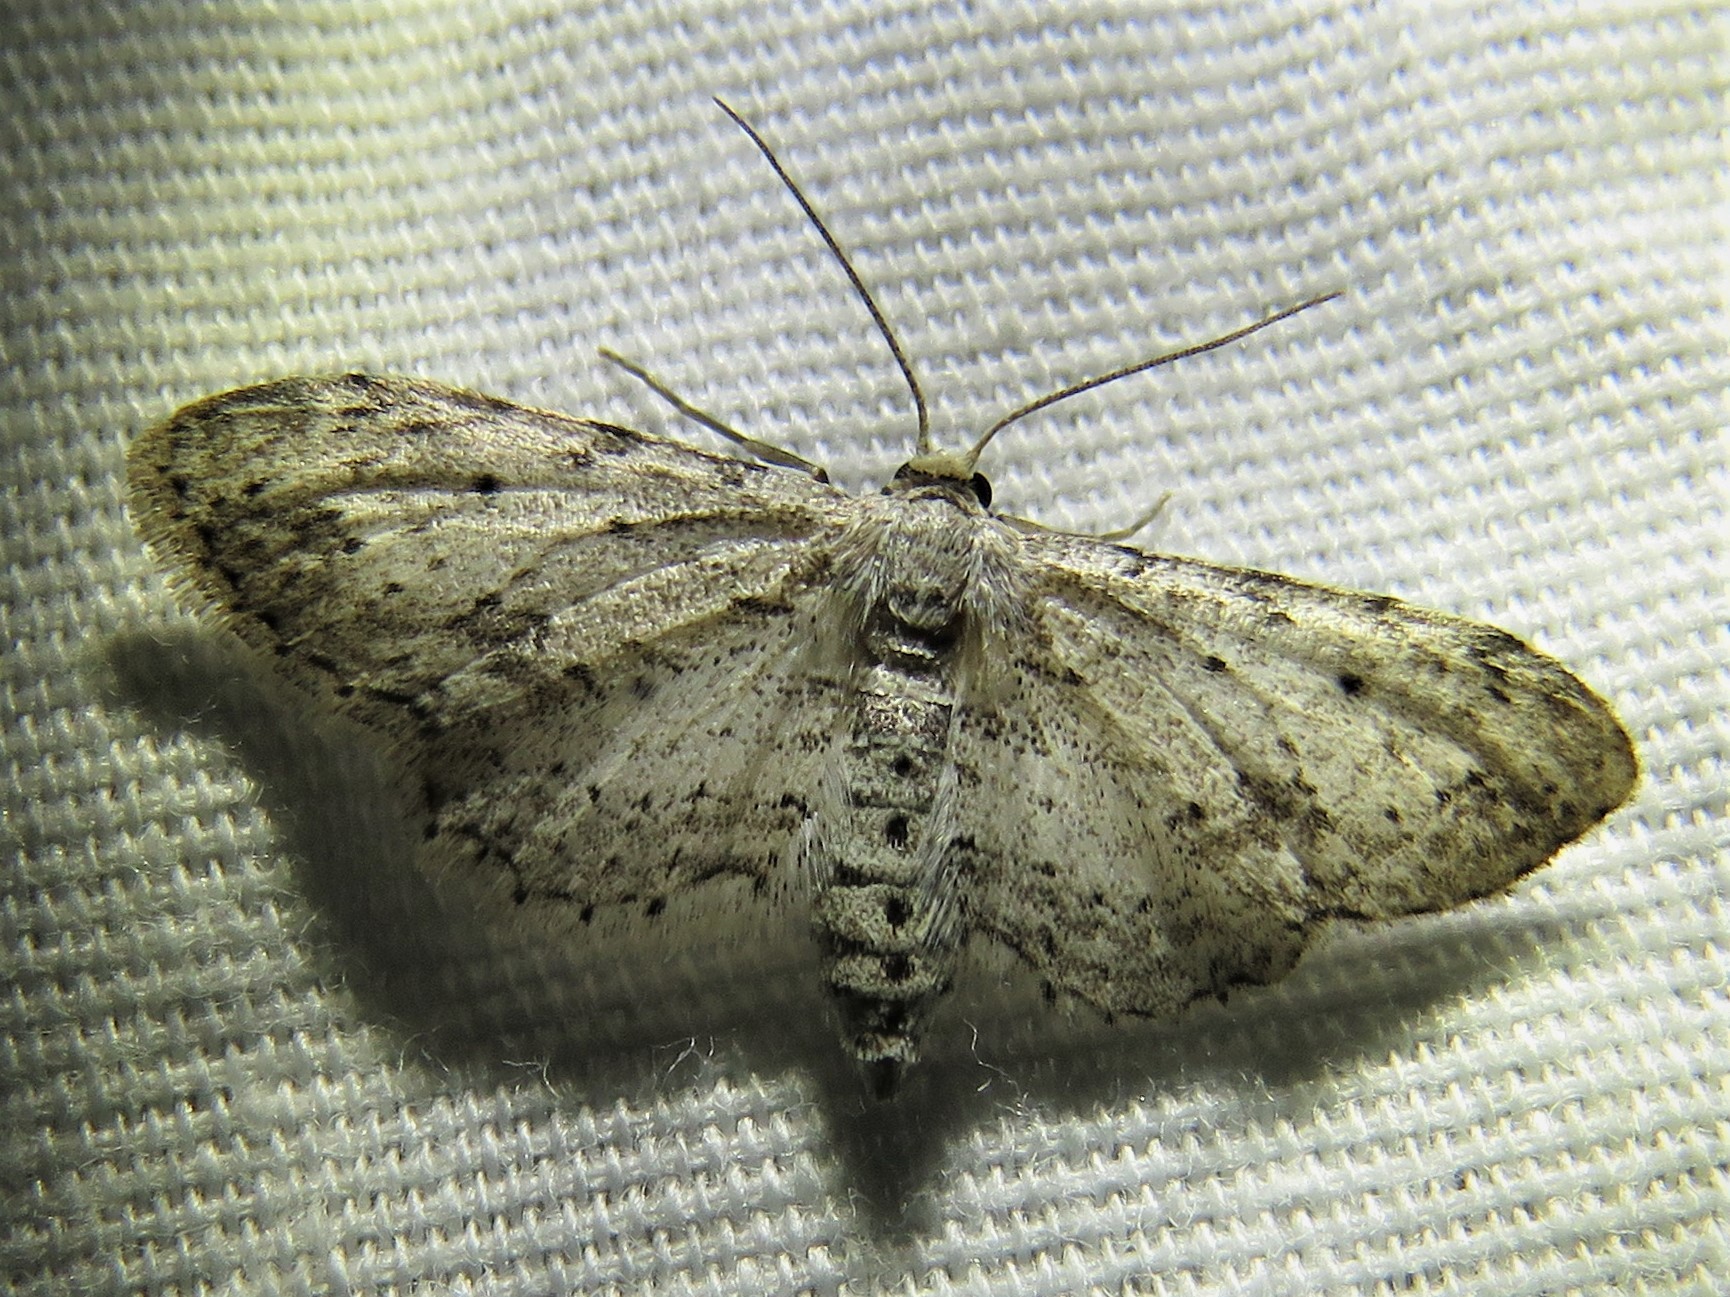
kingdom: Animalia
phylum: Arthropoda
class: Insecta
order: Lepidoptera
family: Geometridae
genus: Pimaphera
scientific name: Pimaphera sparsaria
